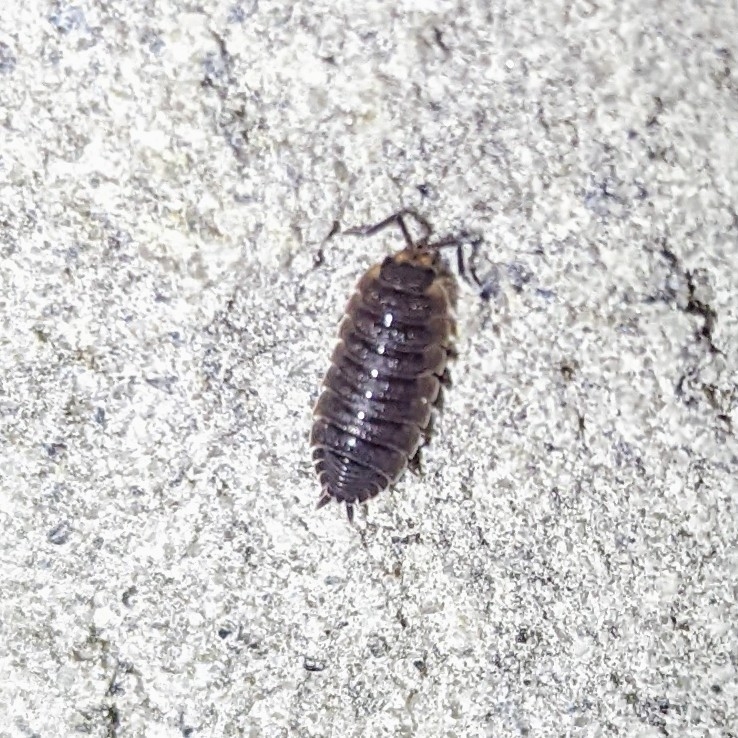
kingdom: Animalia
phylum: Arthropoda
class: Malacostraca
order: Isopoda
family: Porcellionidae
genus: Porcellio
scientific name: Porcellio scaber
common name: Common rough woodlouse
